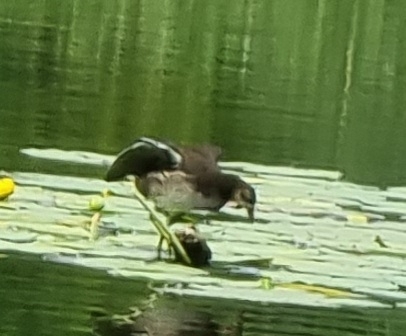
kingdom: Animalia
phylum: Chordata
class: Aves
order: Gruiformes
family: Rallidae
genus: Gallinula
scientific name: Gallinula chloropus
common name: Common moorhen
